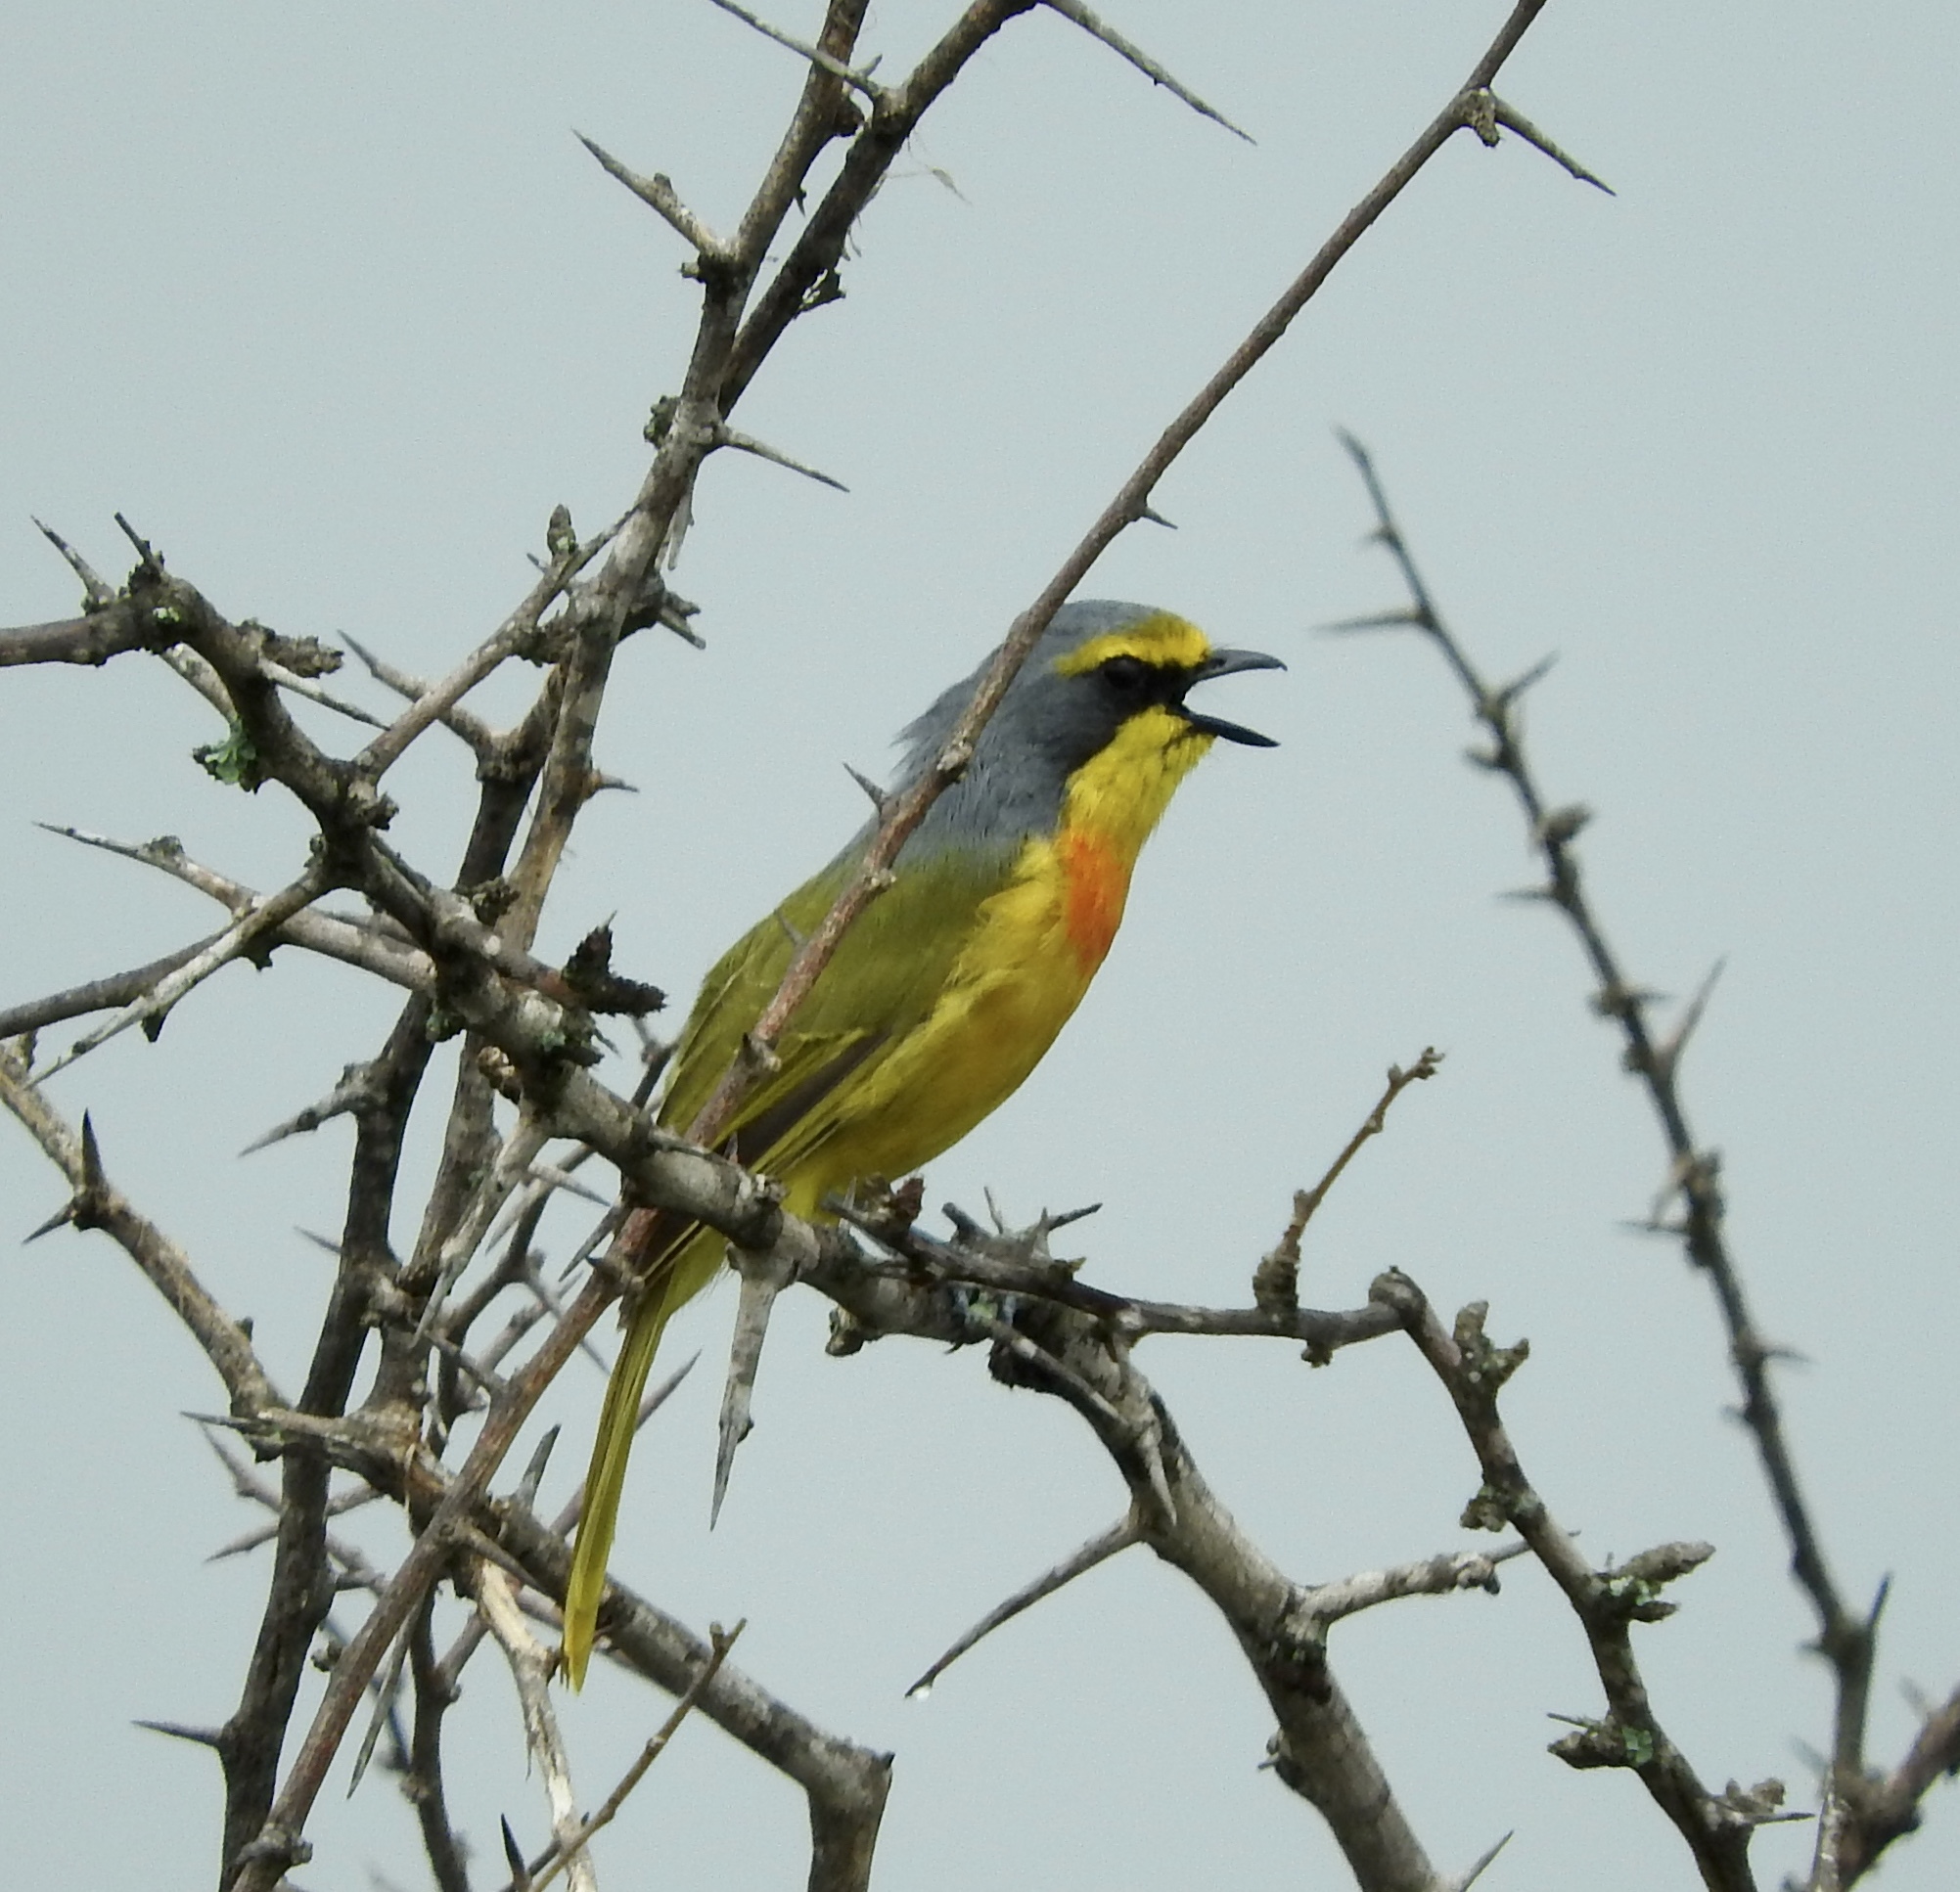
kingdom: Animalia
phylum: Chordata
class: Aves
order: Passeriformes
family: Malaconotidae
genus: Chlorophoneus
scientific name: Chlorophoneus sulfureopectus
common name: Orange-breasted bushshrike
